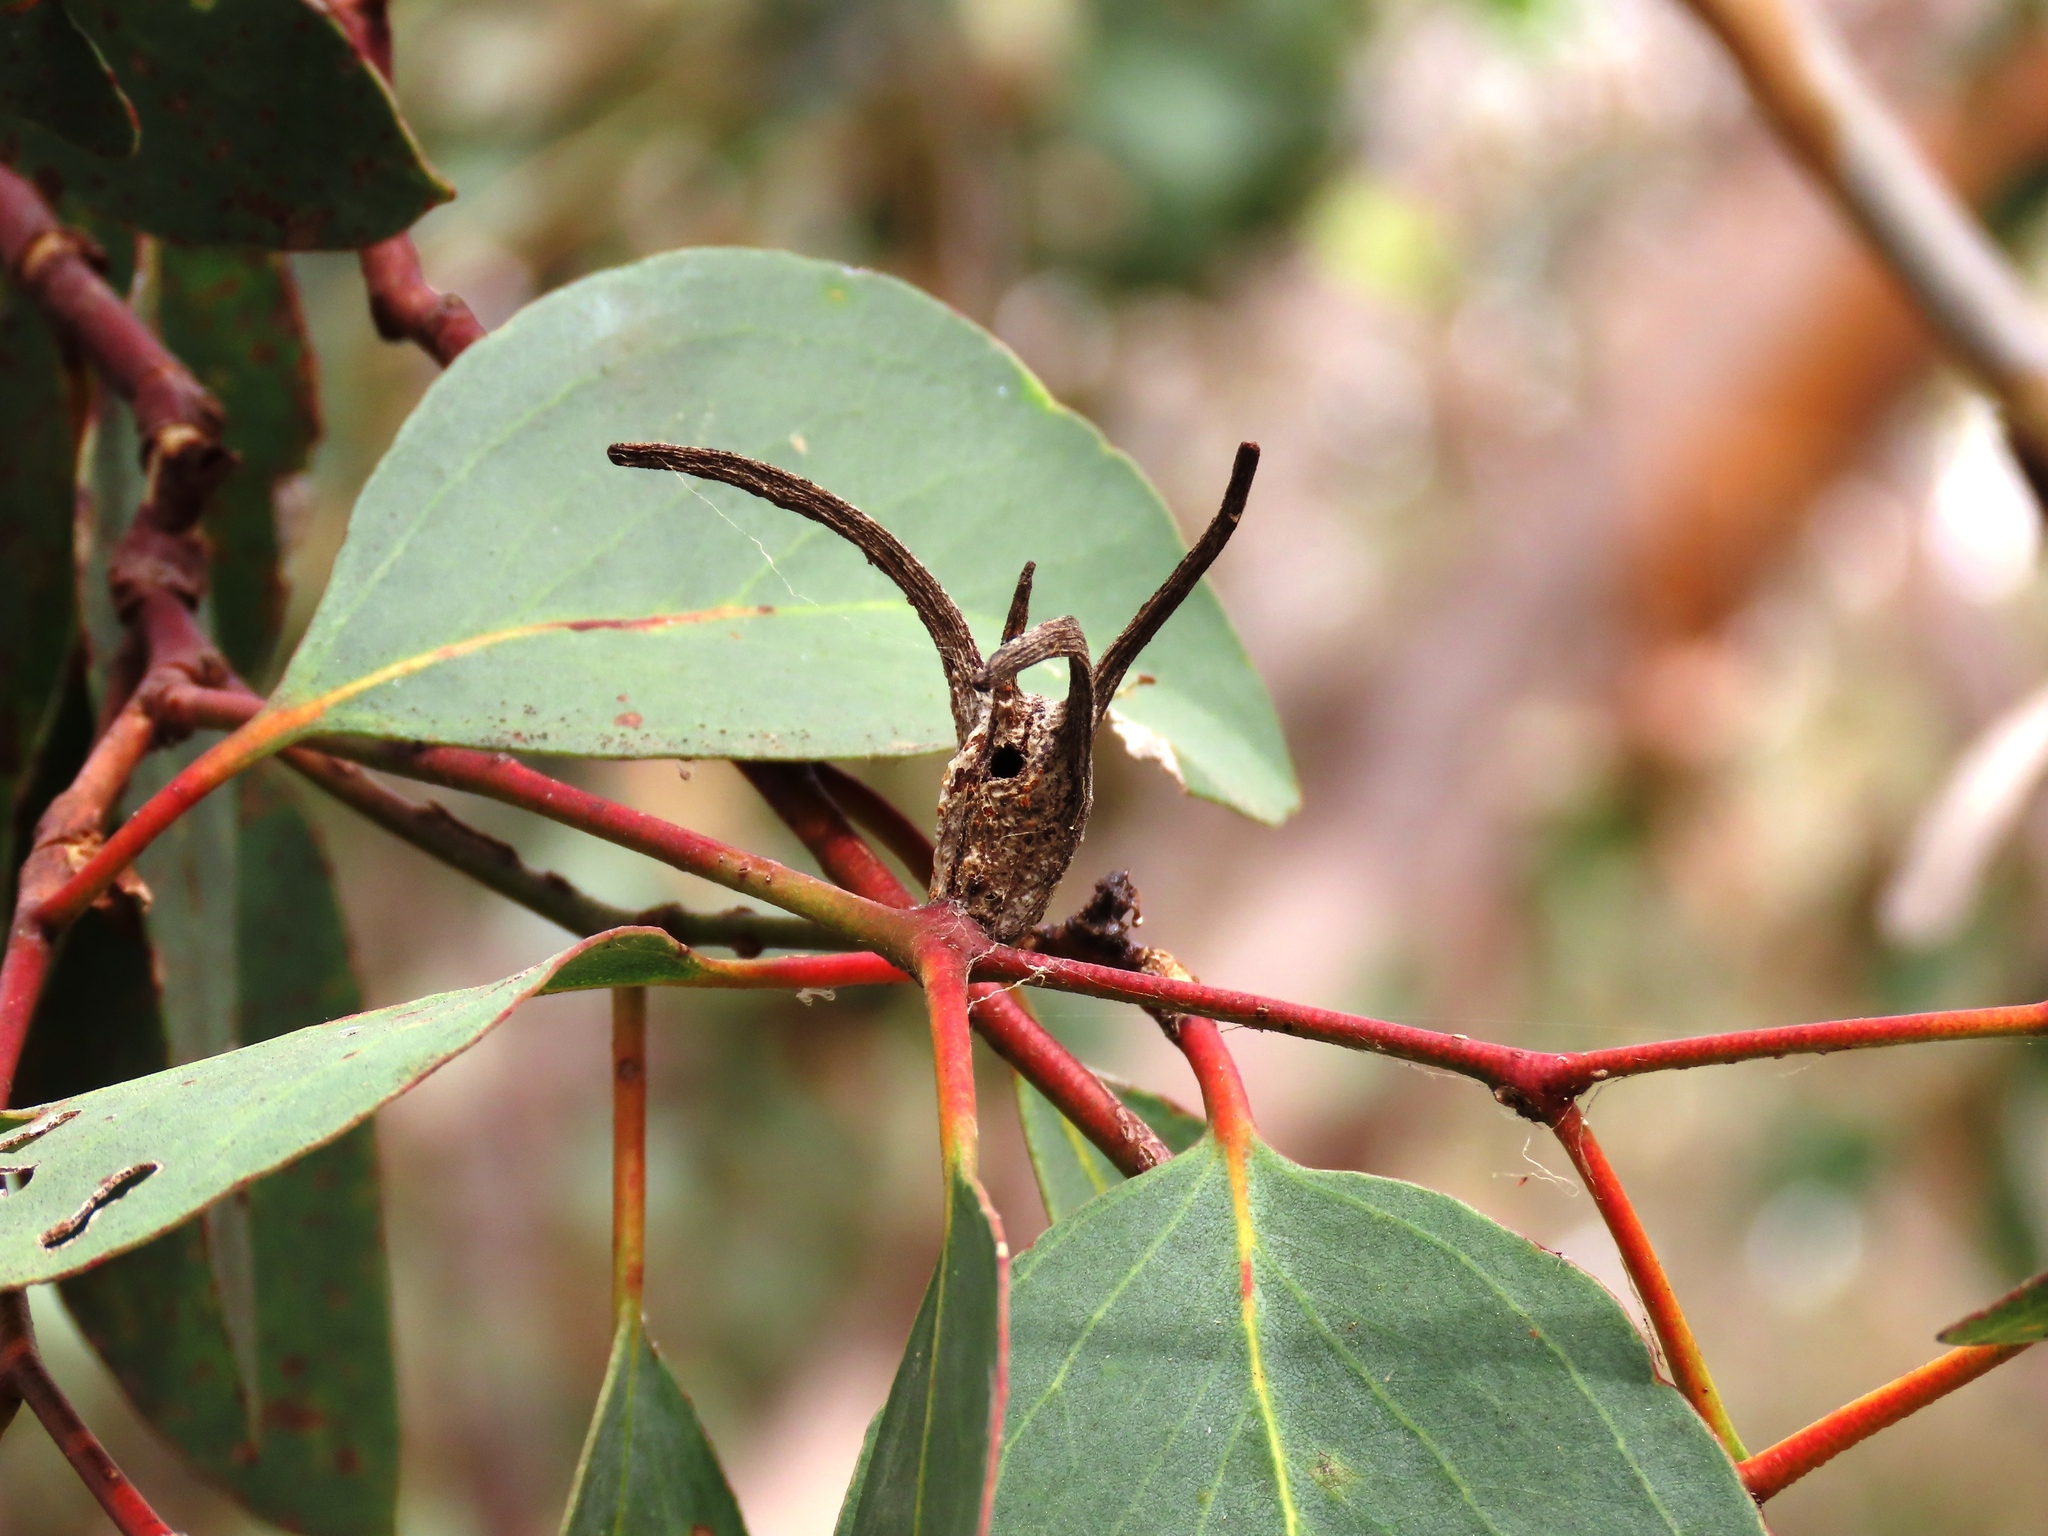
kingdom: Animalia
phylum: Arthropoda
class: Insecta
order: Hemiptera
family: Eriococcidae
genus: Apiomorpha
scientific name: Apiomorpha munita
